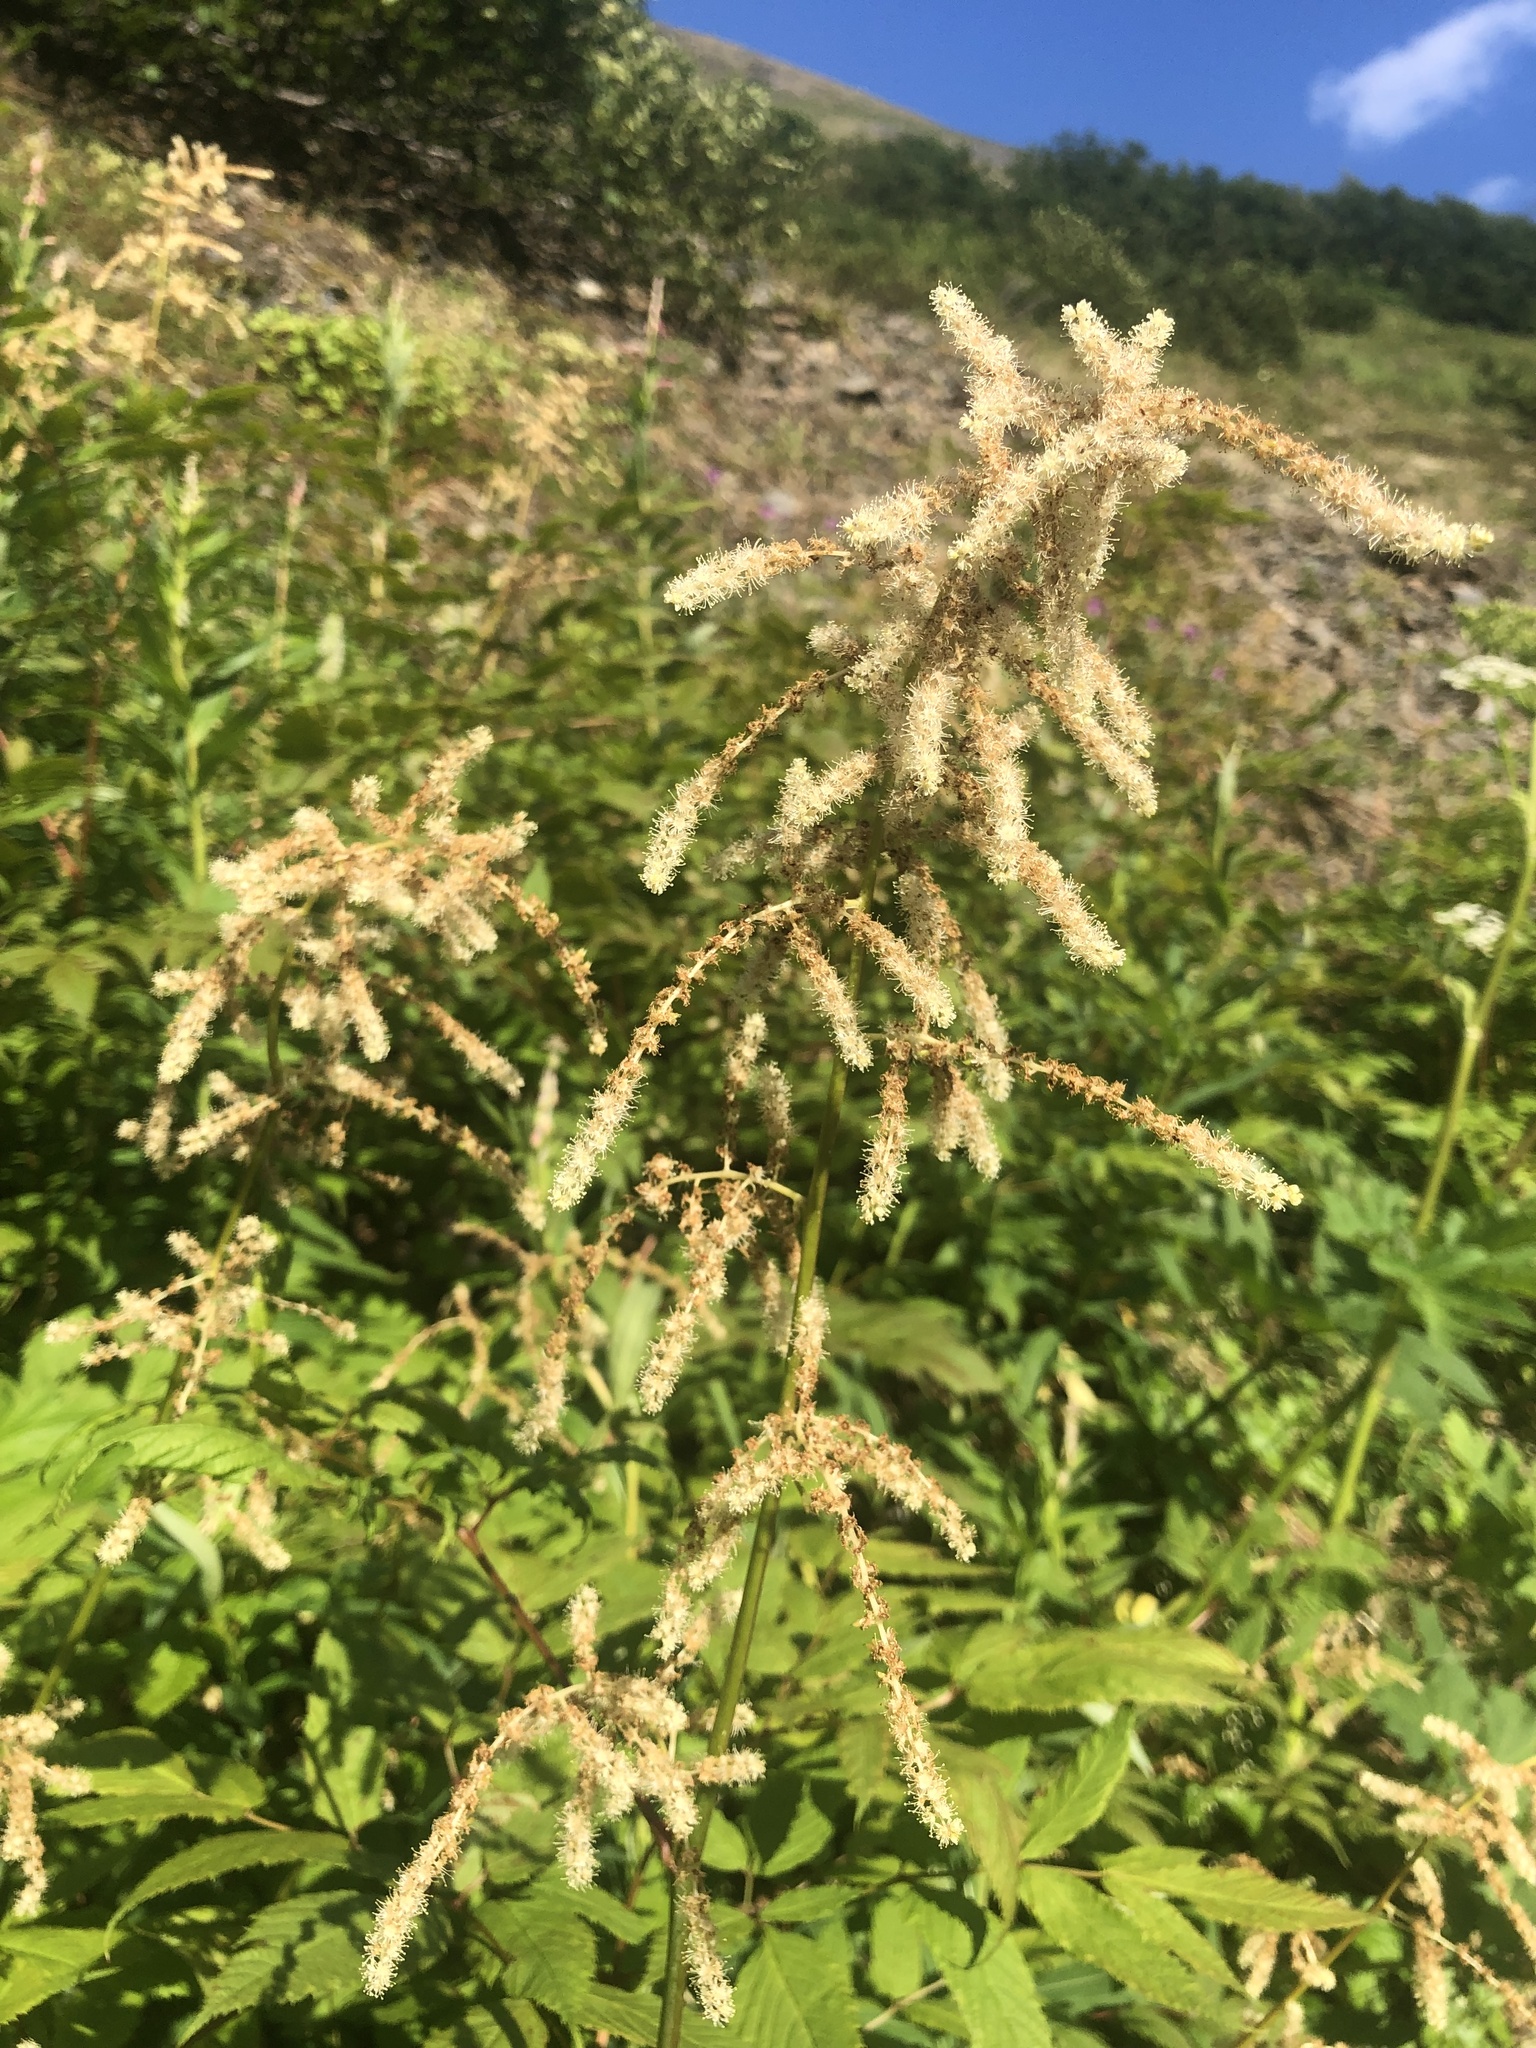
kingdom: Plantae
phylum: Tracheophyta
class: Magnoliopsida
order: Rosales
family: Rosaceae
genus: Aruncus
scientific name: Aruncus dioicus
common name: Buck's-beard
